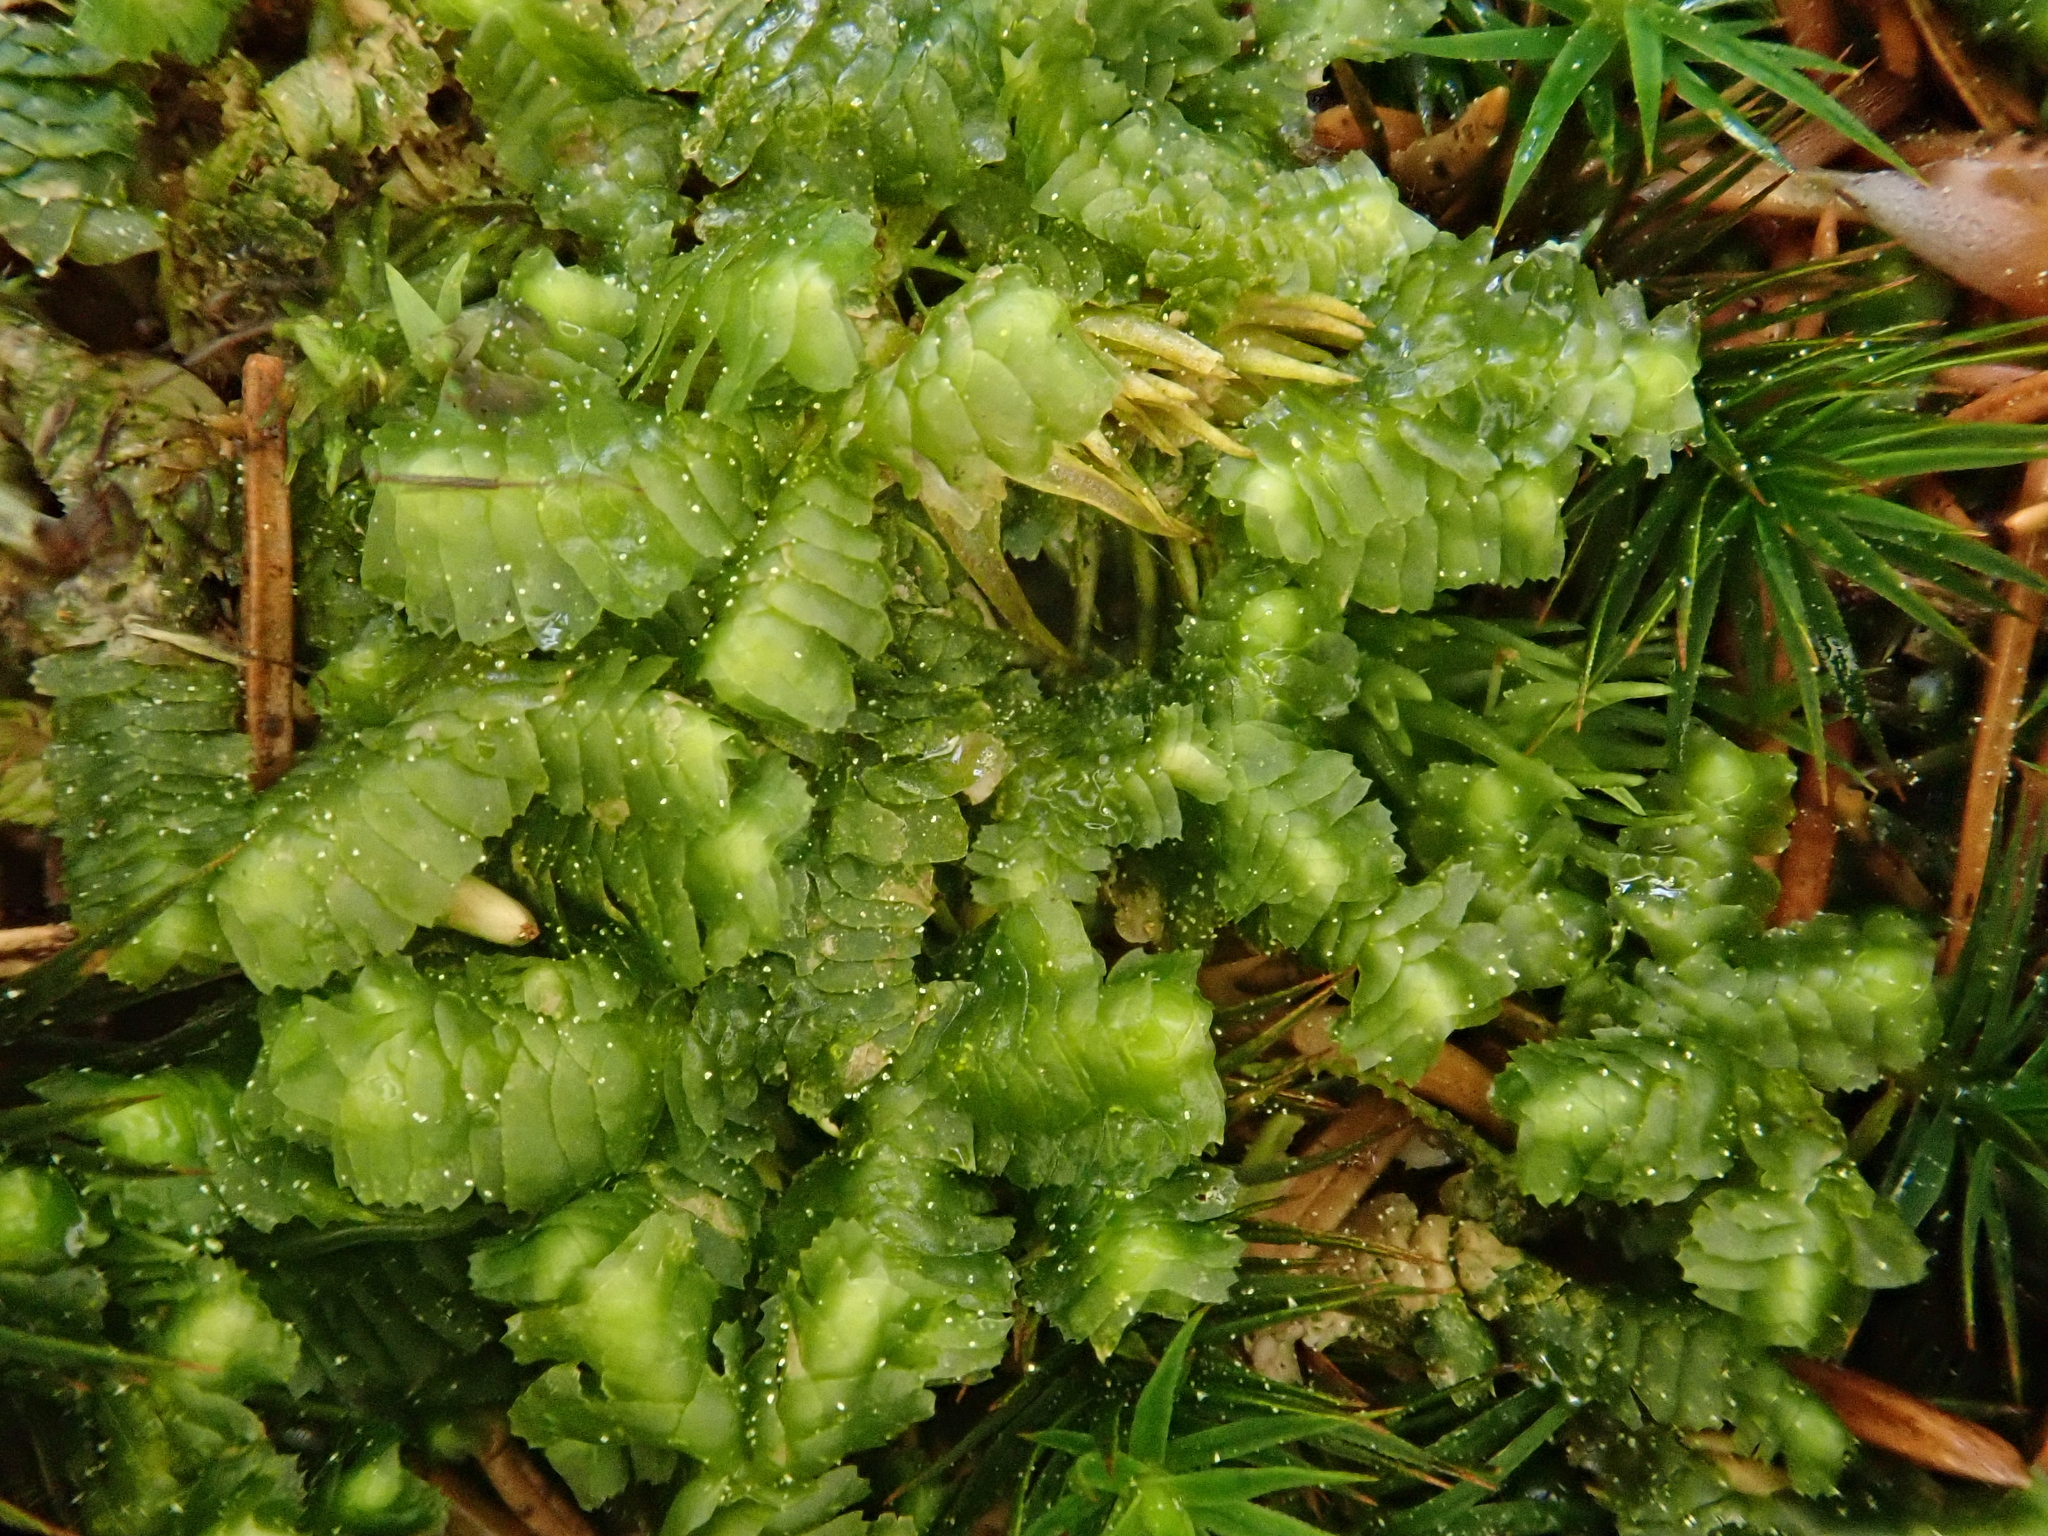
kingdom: Plantae
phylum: Marchantiophyta
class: Jungermanniopsida
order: Jungermanniales
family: Lepidoziaceae
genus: Bazzania
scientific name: Bazzania trilobata
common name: Three-lobed whipwort
